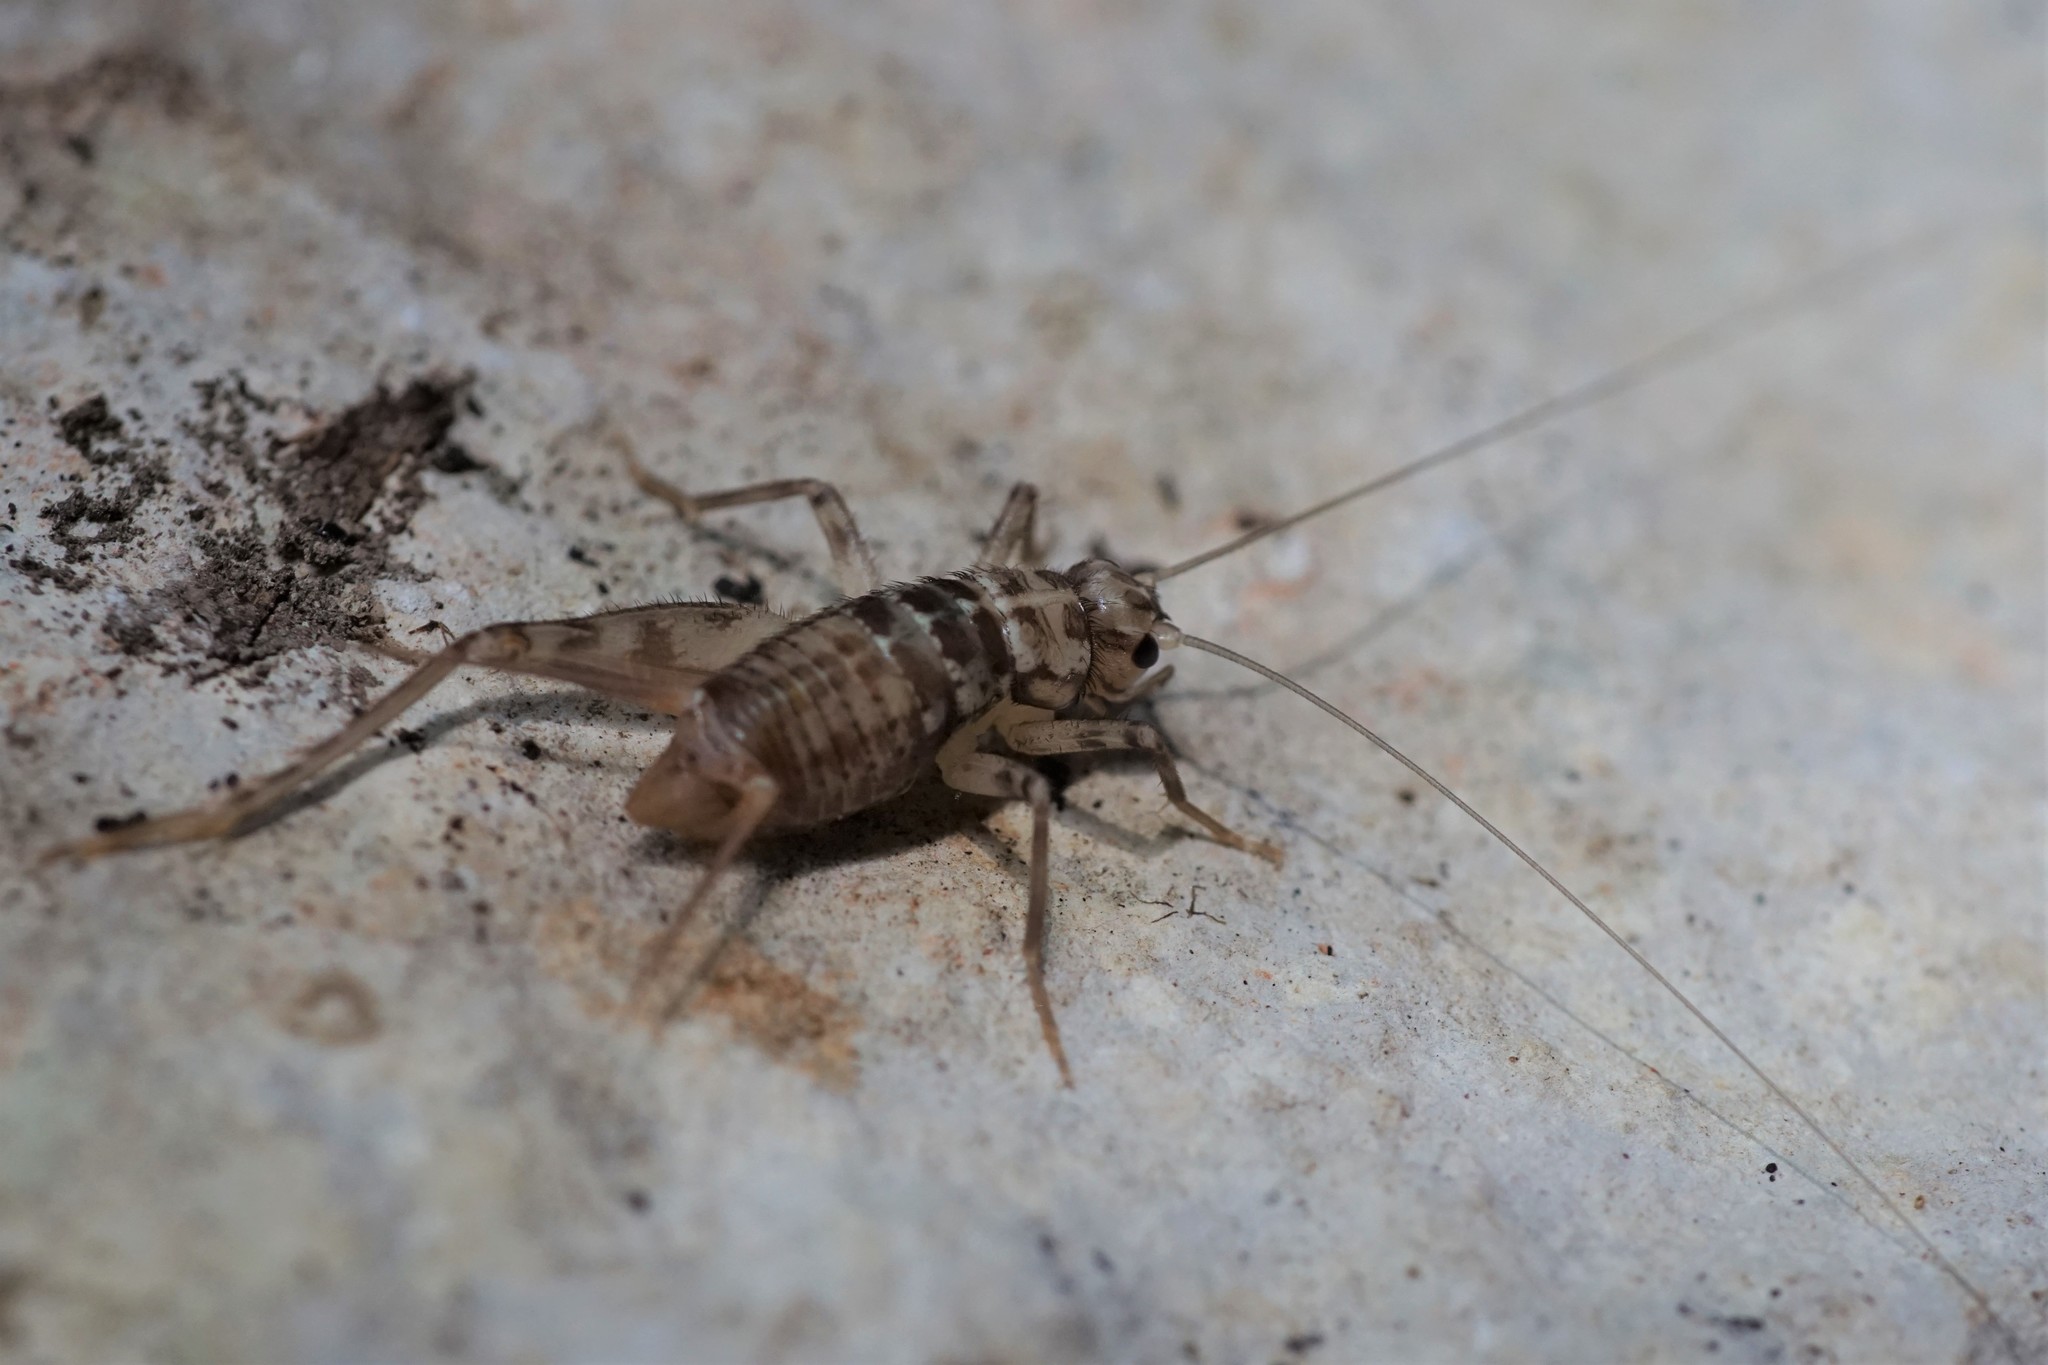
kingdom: Animalia
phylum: Arthropoda
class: Insecta
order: Orthoptera
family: Gryllidae
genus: Gryllomorpha
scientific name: Gryllomorpha dalmatina
